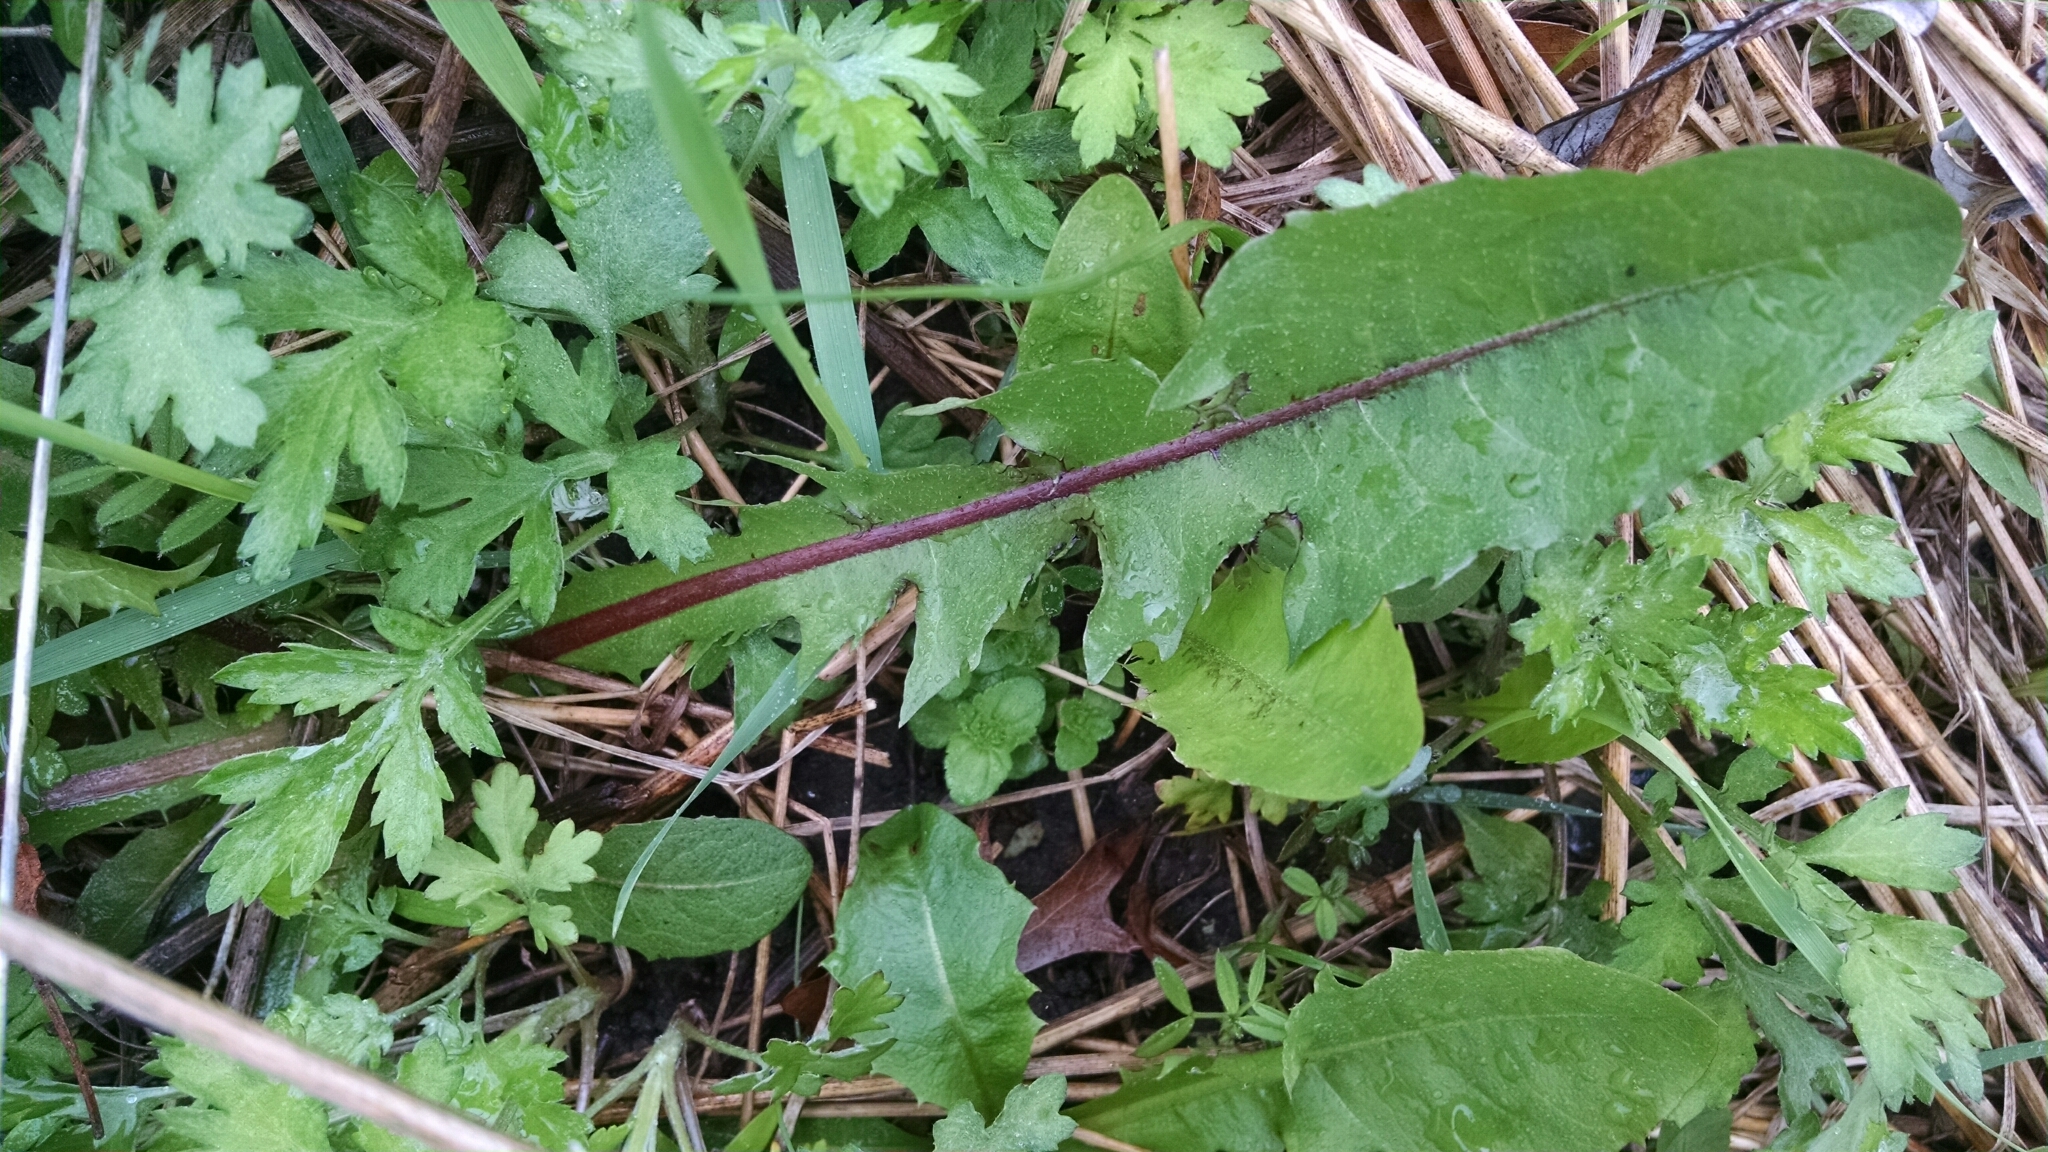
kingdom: Plantae
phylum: Tracheophyta
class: Magnoliopsida
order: Asterales
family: Asteraceae
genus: Taraxacum
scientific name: Taraxacum officinale
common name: Common dandelion
